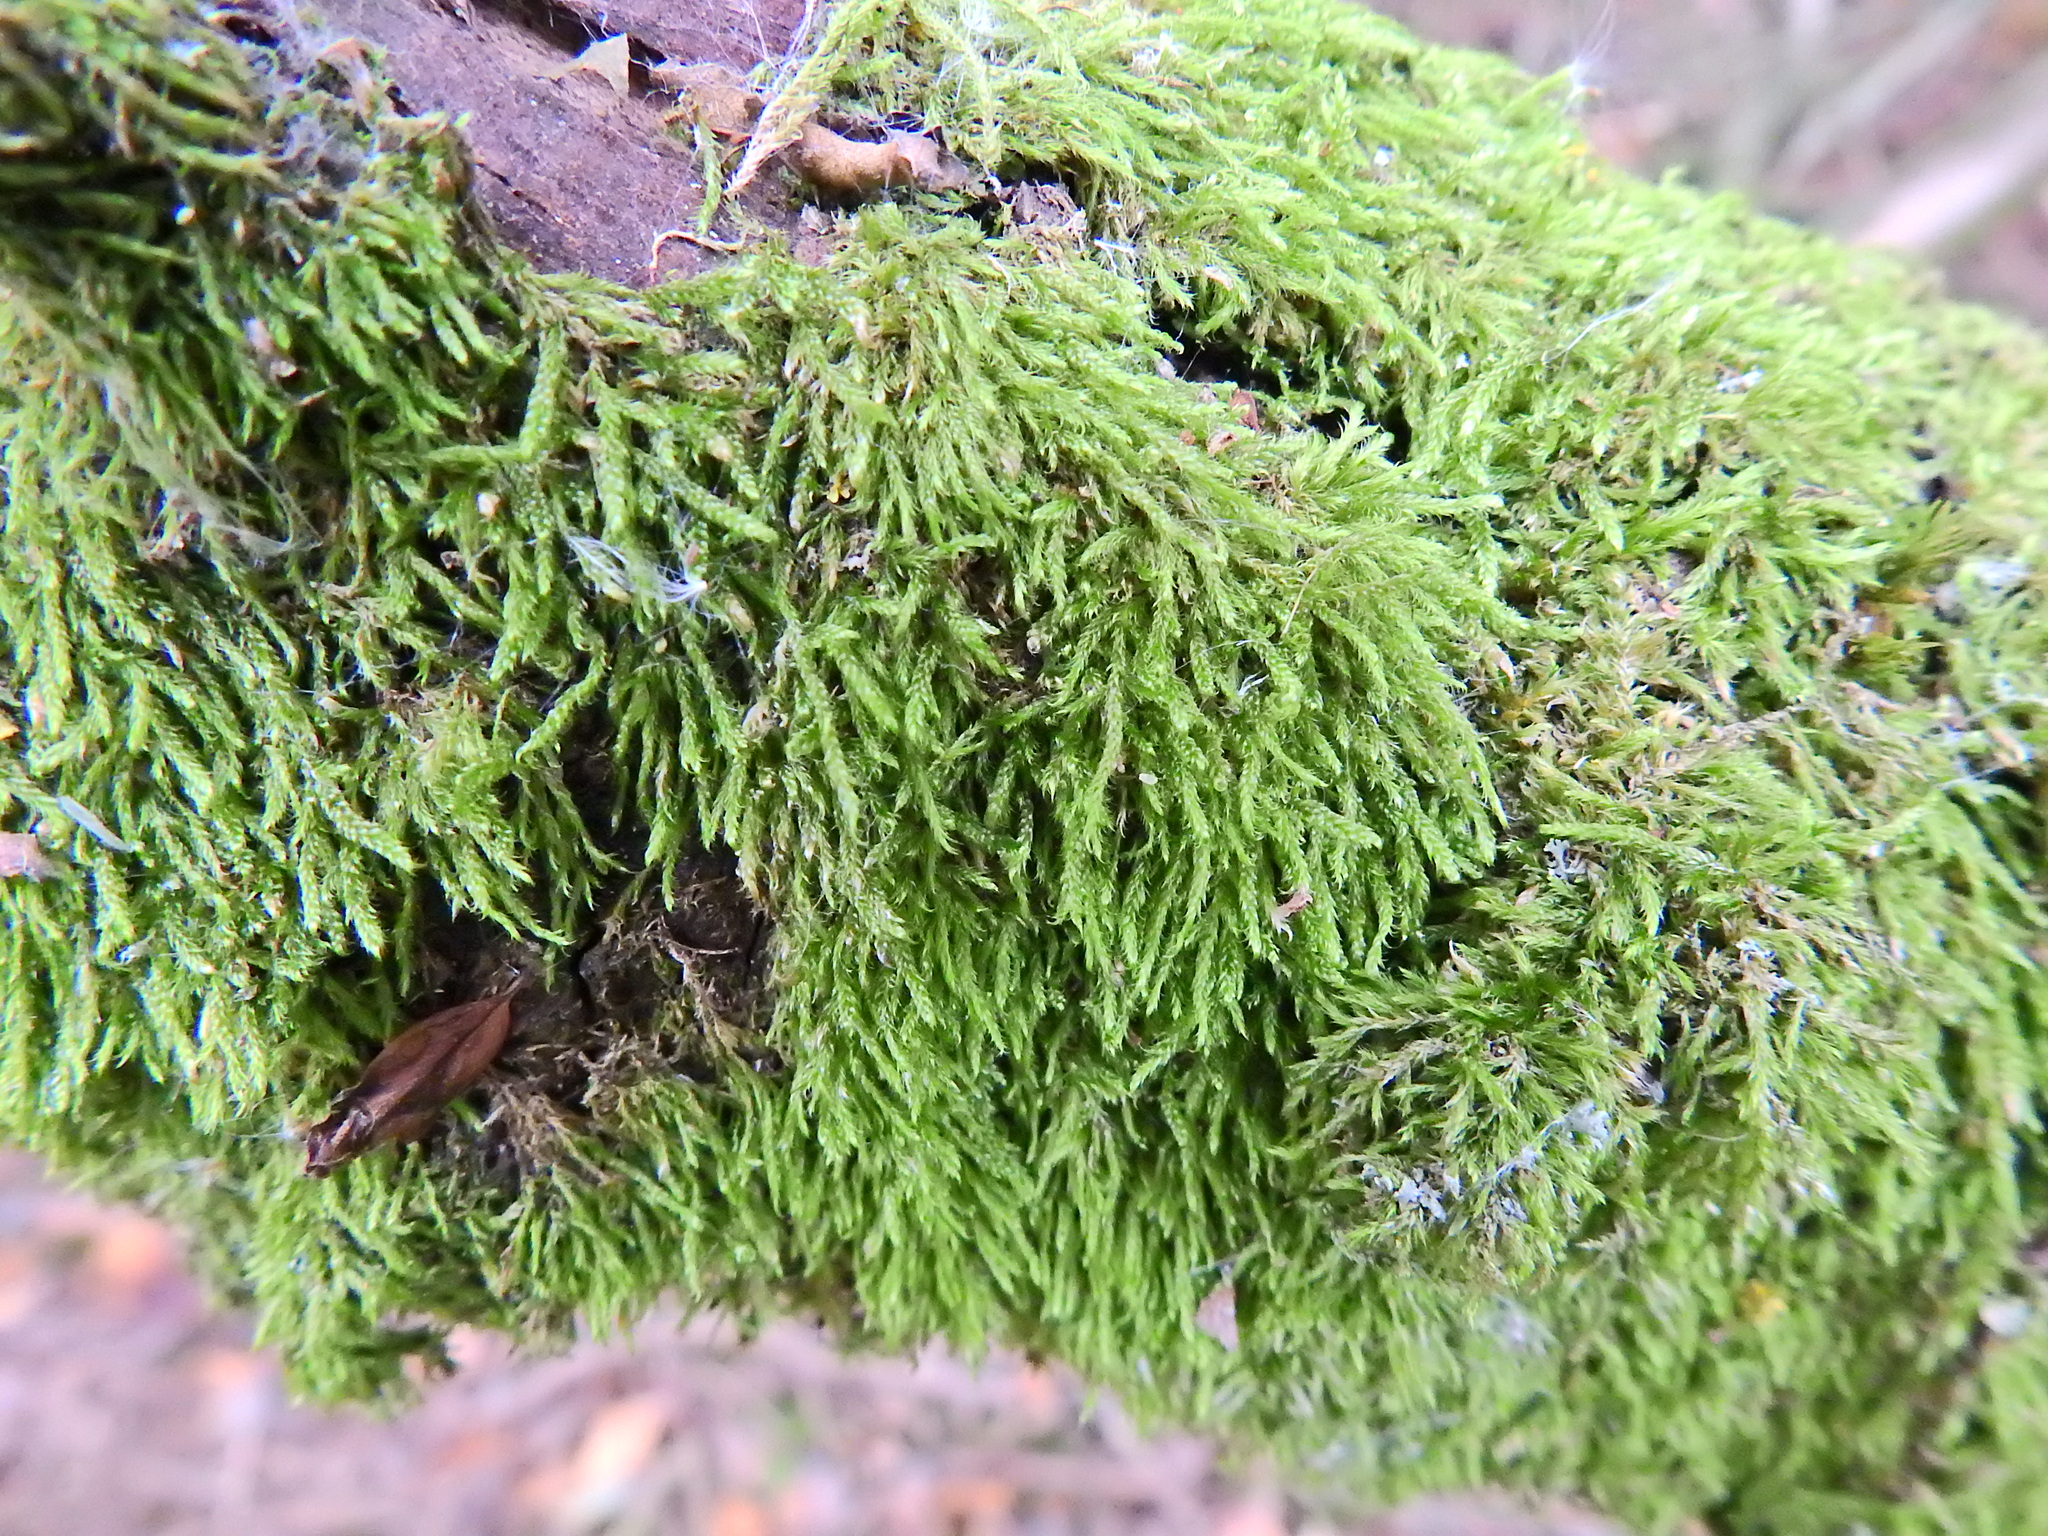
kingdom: Plantae
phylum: Bryophyta
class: Bryopsida
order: Hypnales
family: Hypnaceae
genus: Hypnum
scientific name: Hypnum andoi
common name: Ando's plait moss
